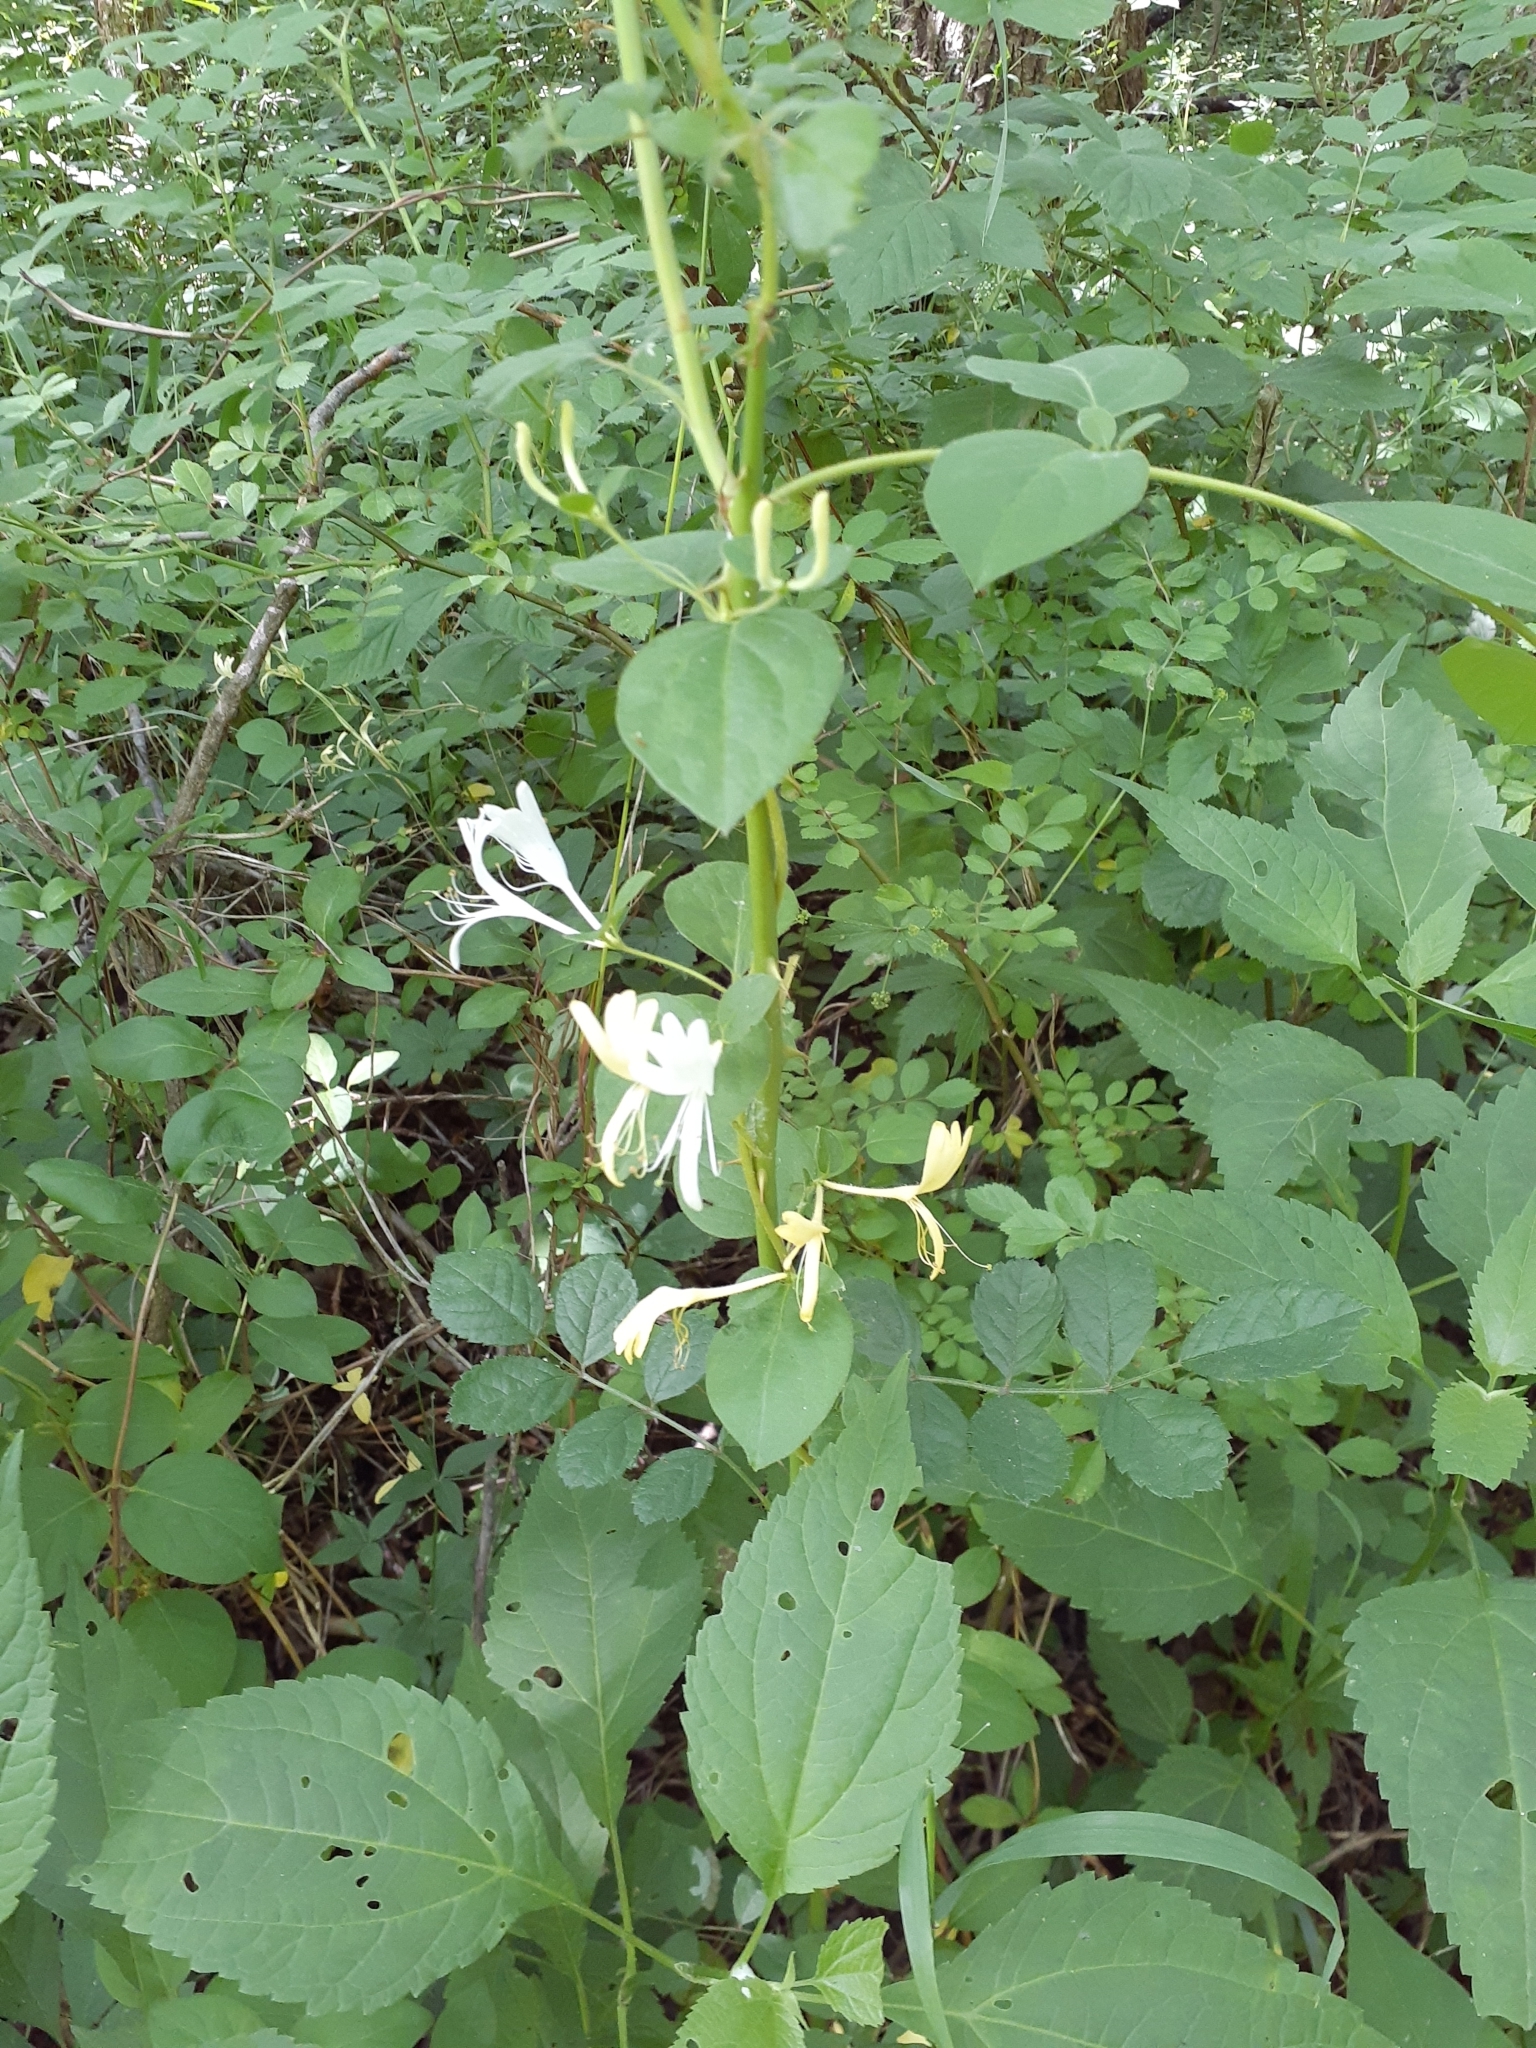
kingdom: Plantae
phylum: Tracheophyta
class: Magnoliopsida
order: Dipsacales
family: Caprifoliaceae
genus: Lonicera
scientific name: Lonicera japonica
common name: Japanese honeysuckle
